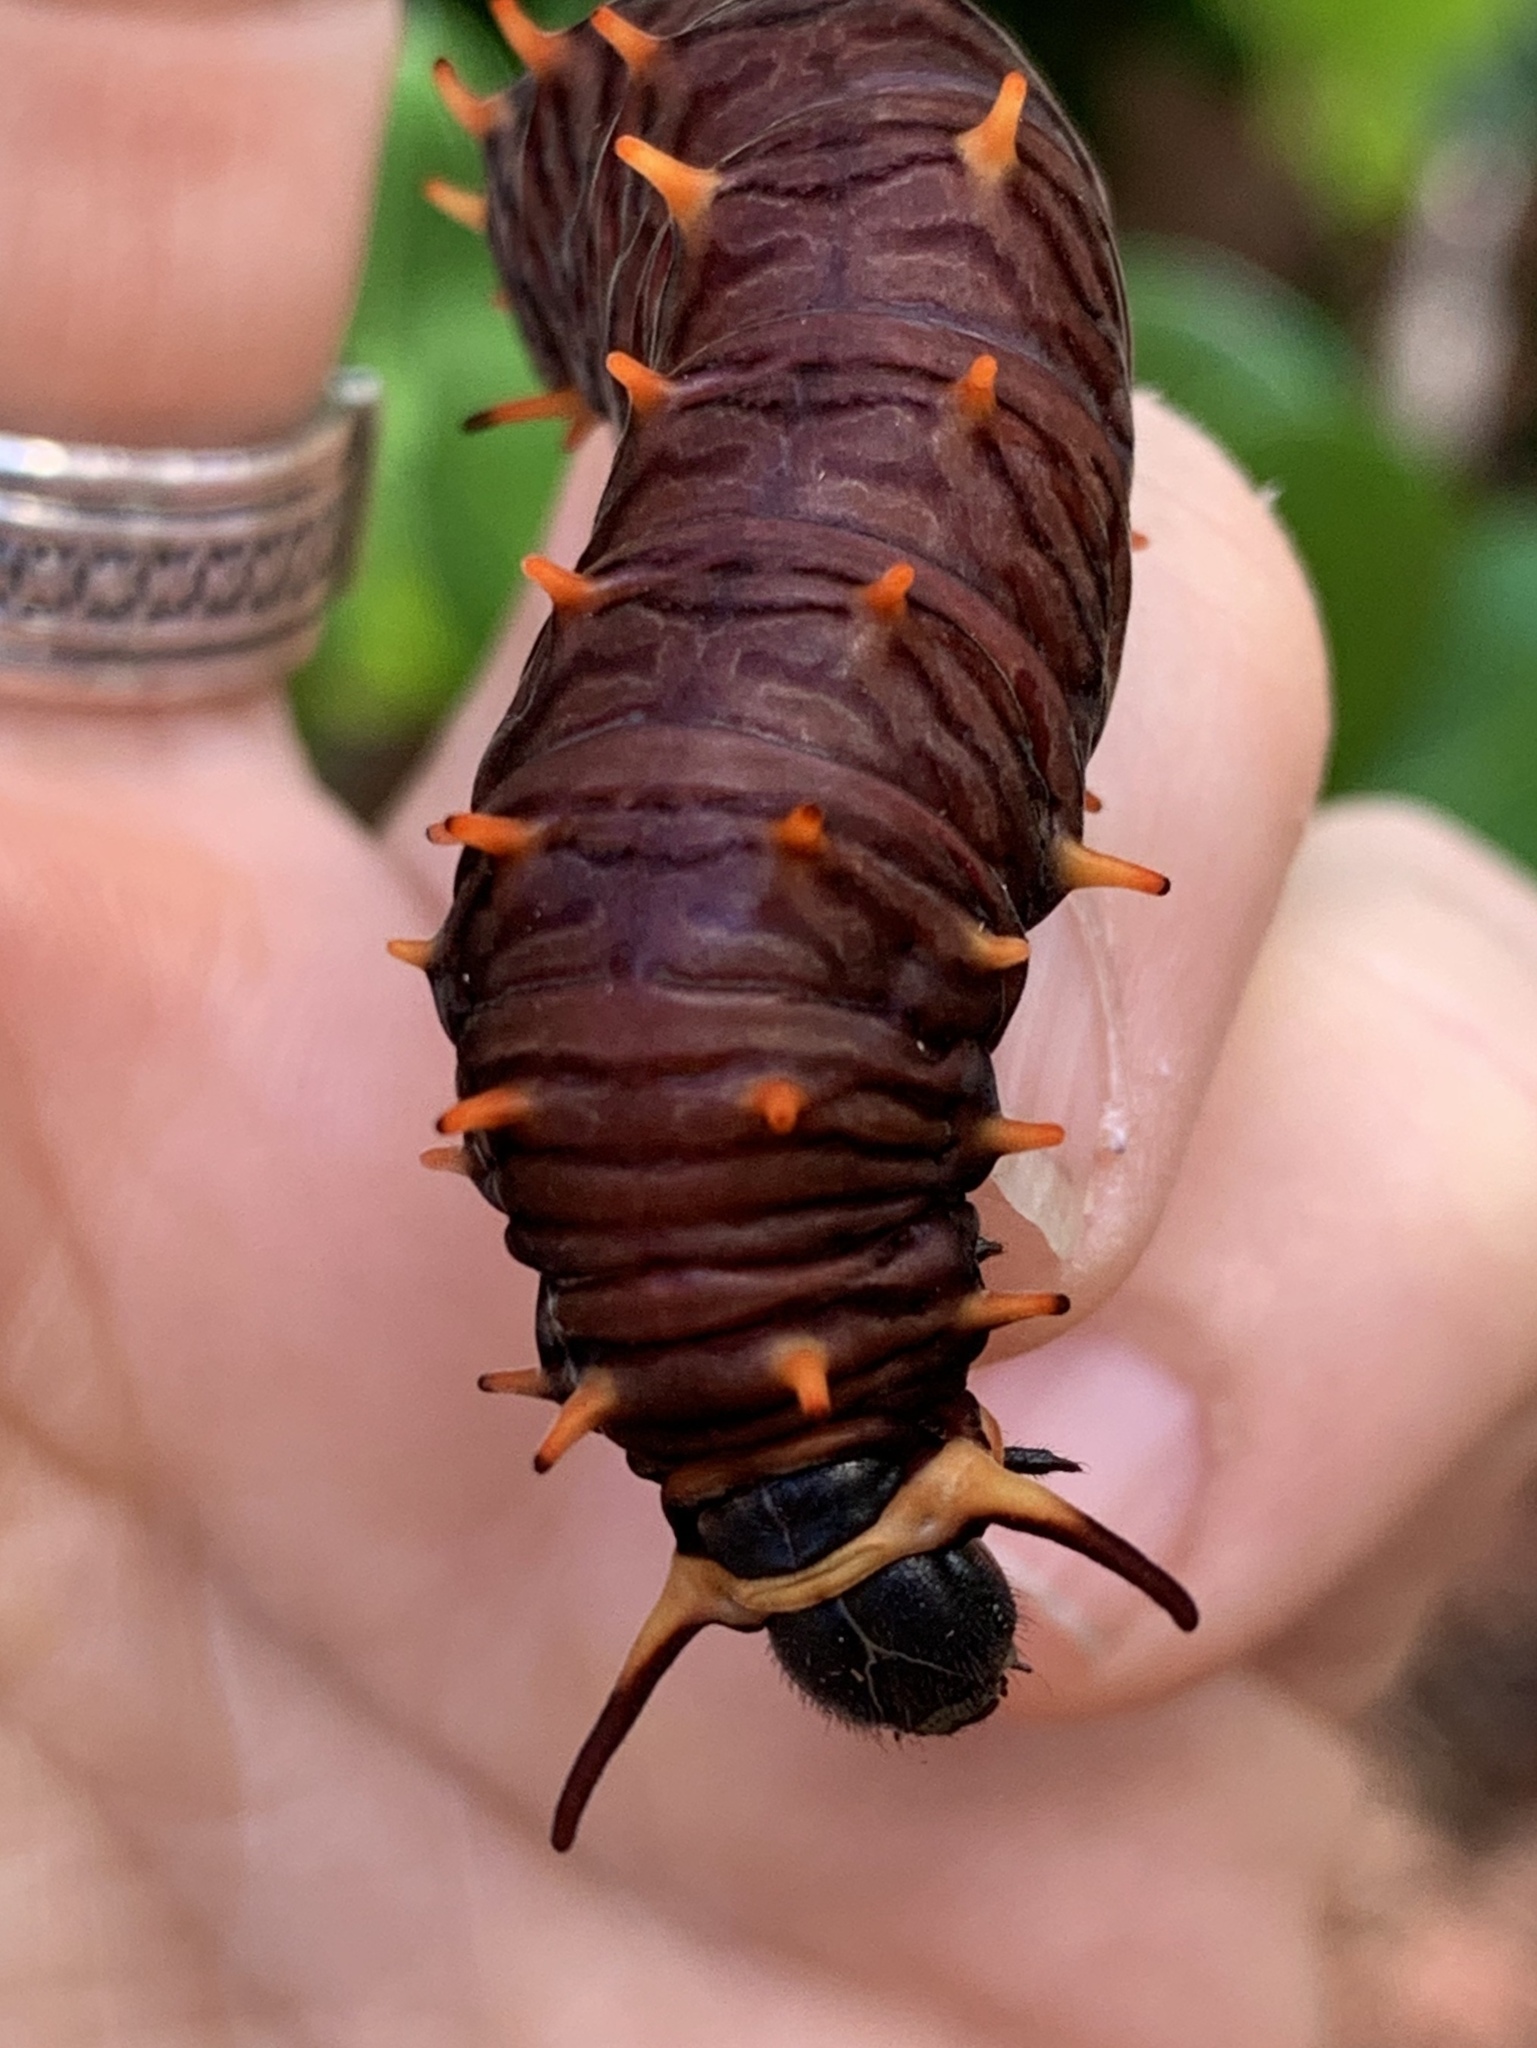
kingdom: Animalia
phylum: Arthropoda
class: Insecta
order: Lepidoptera
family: Papilionidae
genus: Battus
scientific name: Battus polydamas
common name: Polydamas swallowtail
